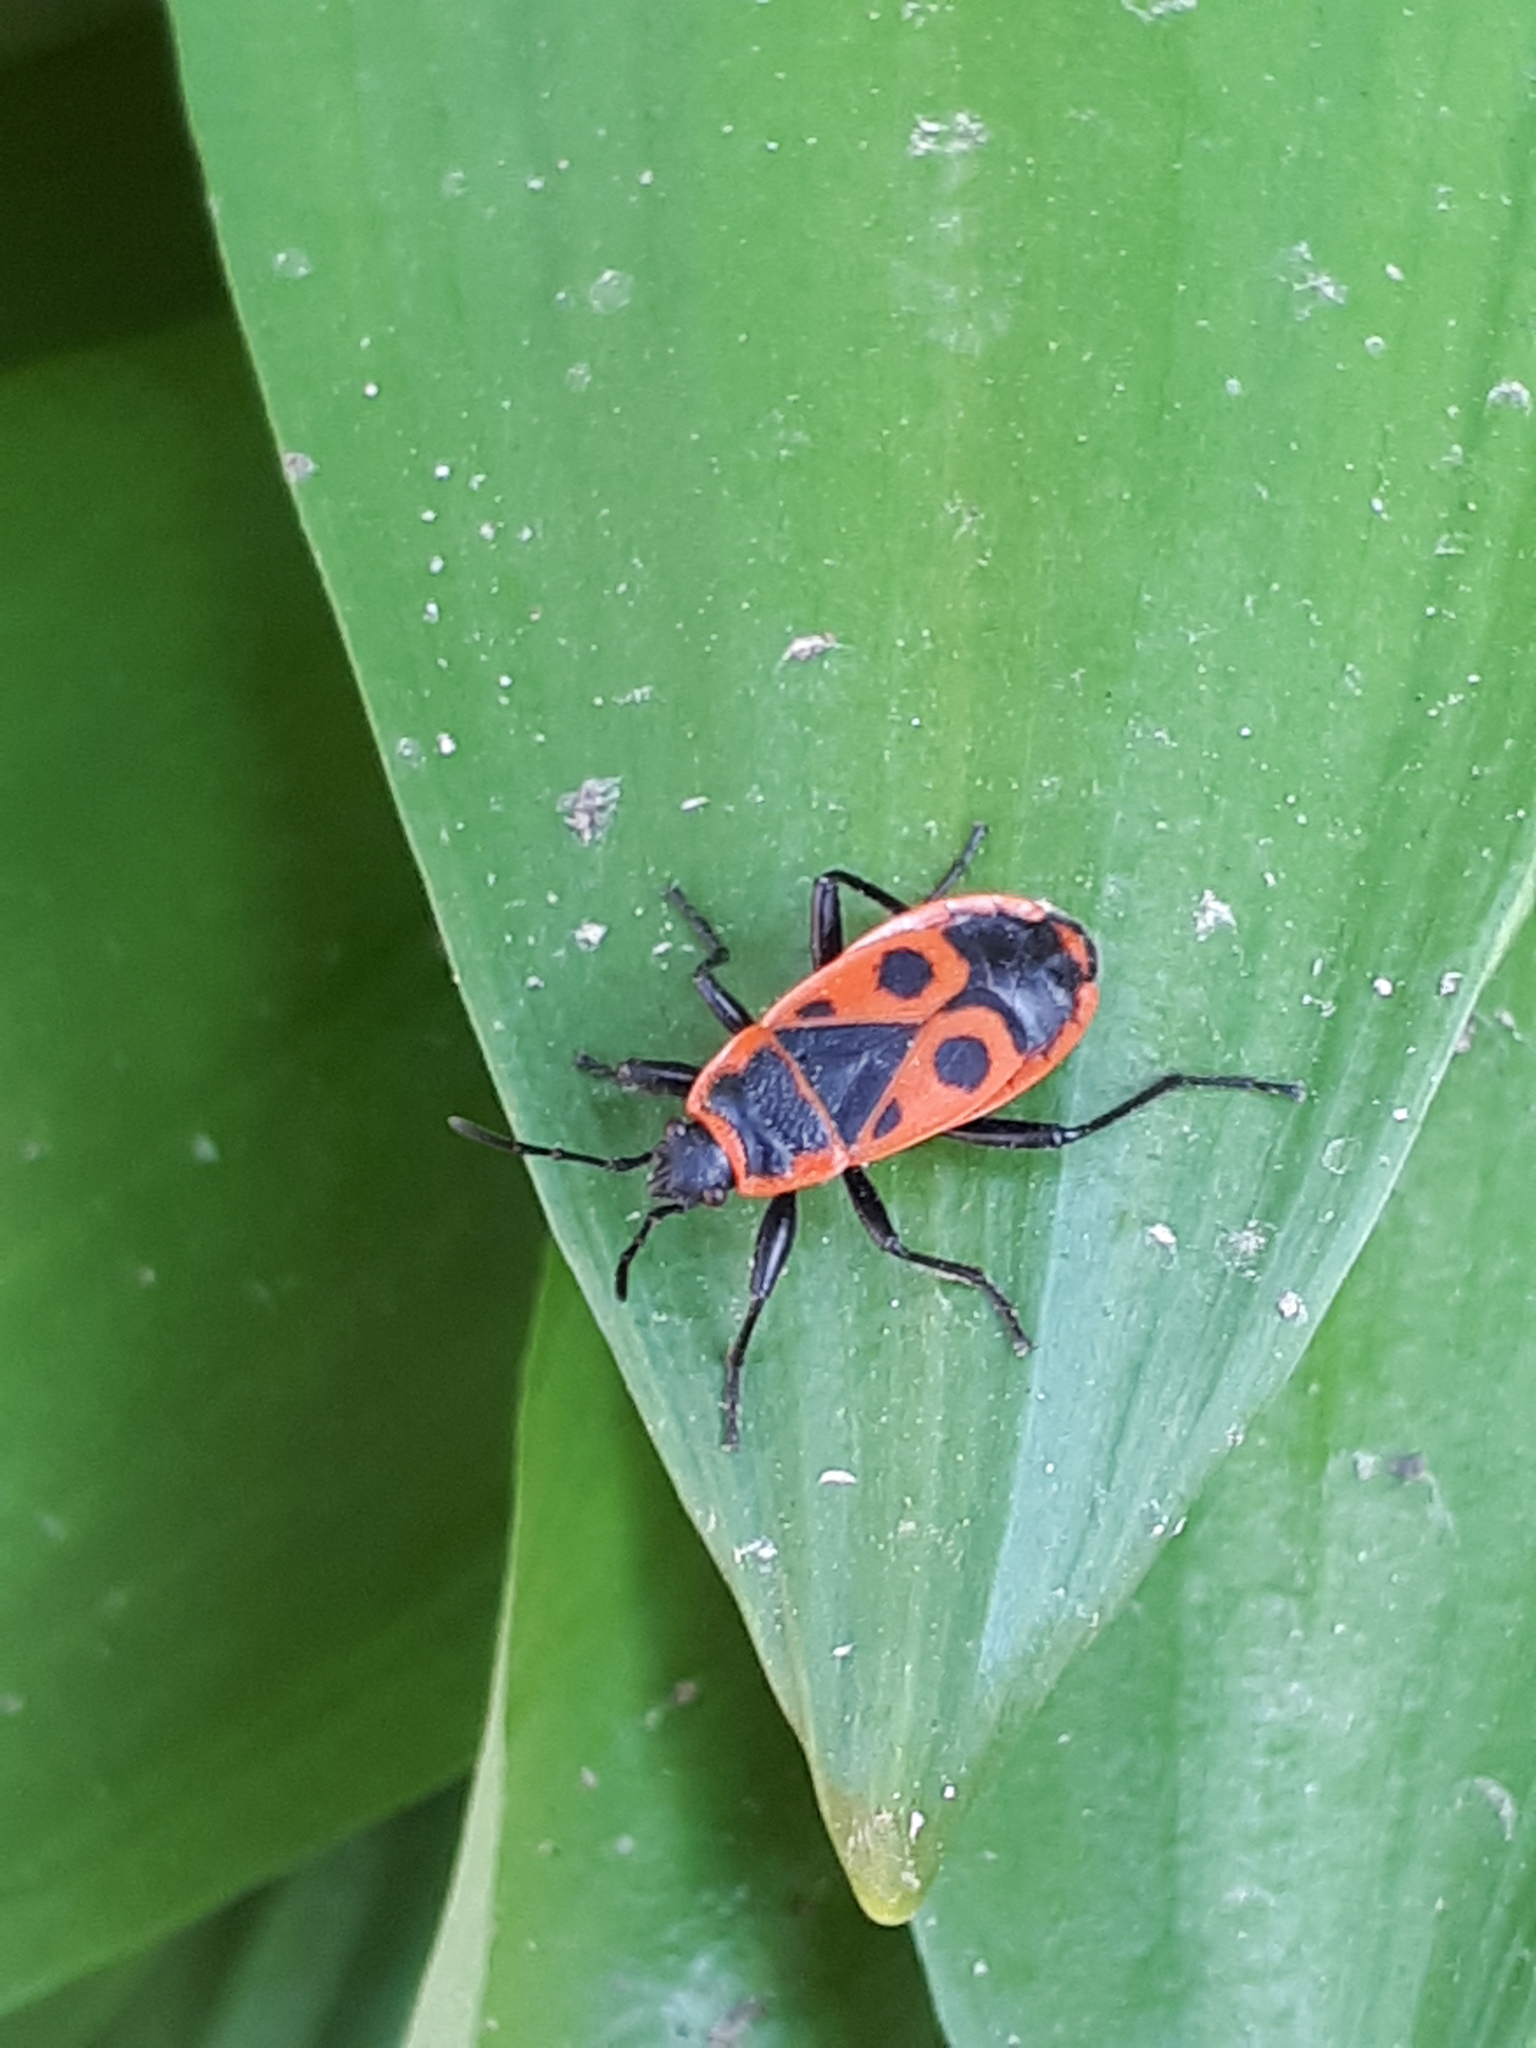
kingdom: Animalia
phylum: Arthropoda
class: Insecta
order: Hemiptera
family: Pyrrhocoridae
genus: Pyrrhocoris
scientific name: Pyrrhocoris apterus
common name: Firebug
